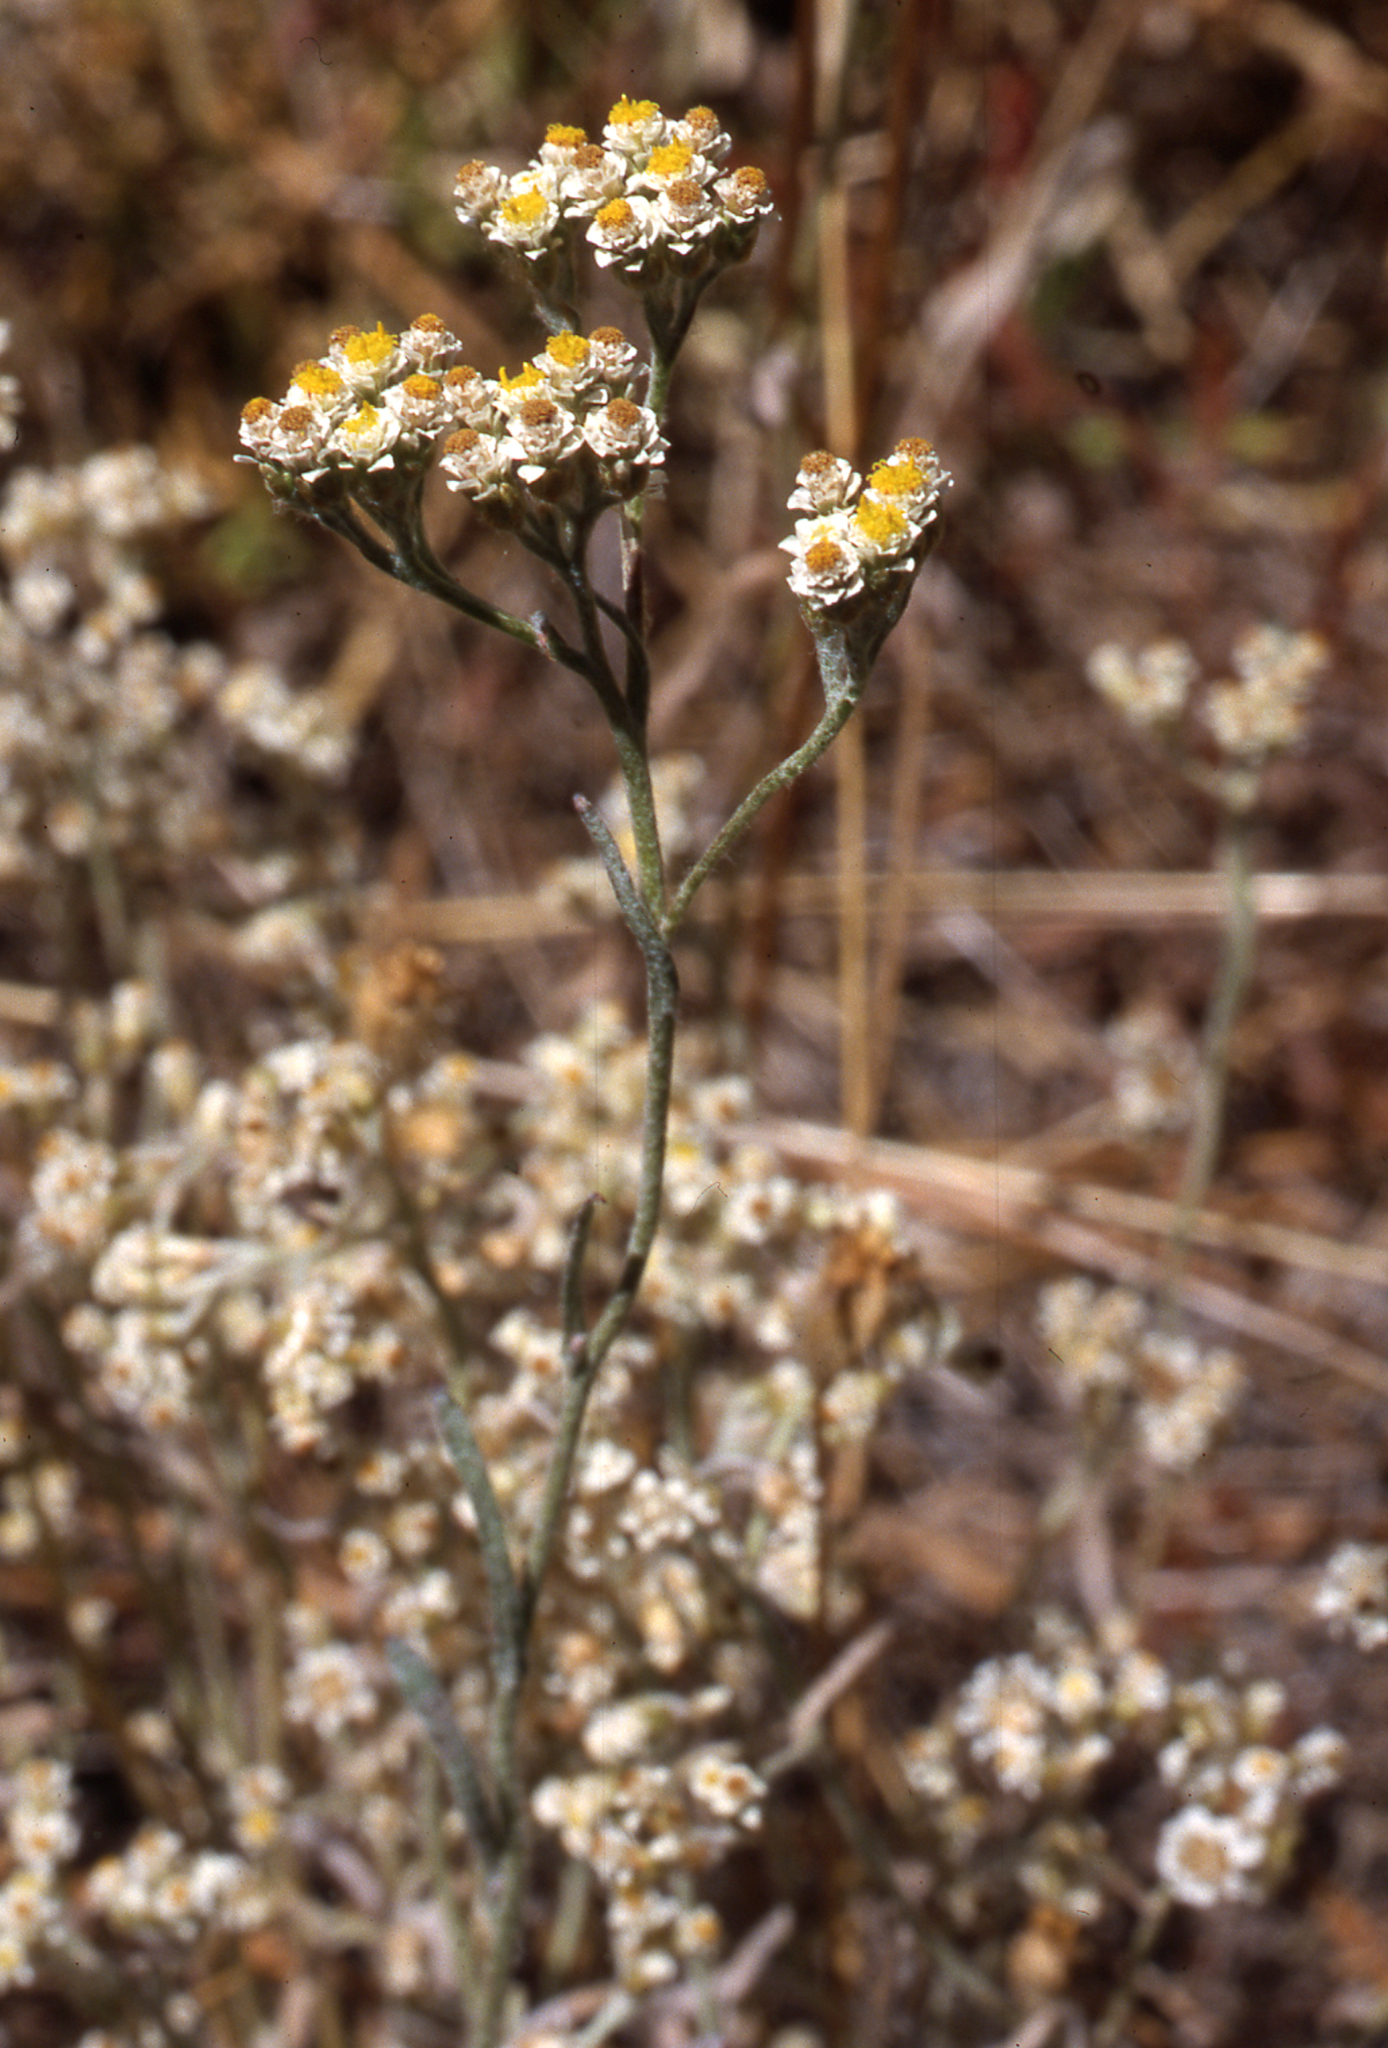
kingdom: Plantae
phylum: Tracheophyta
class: Magnoliopsida
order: Asterales
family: Asteraceae
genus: Helichrysum
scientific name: Helichrysum indicum
